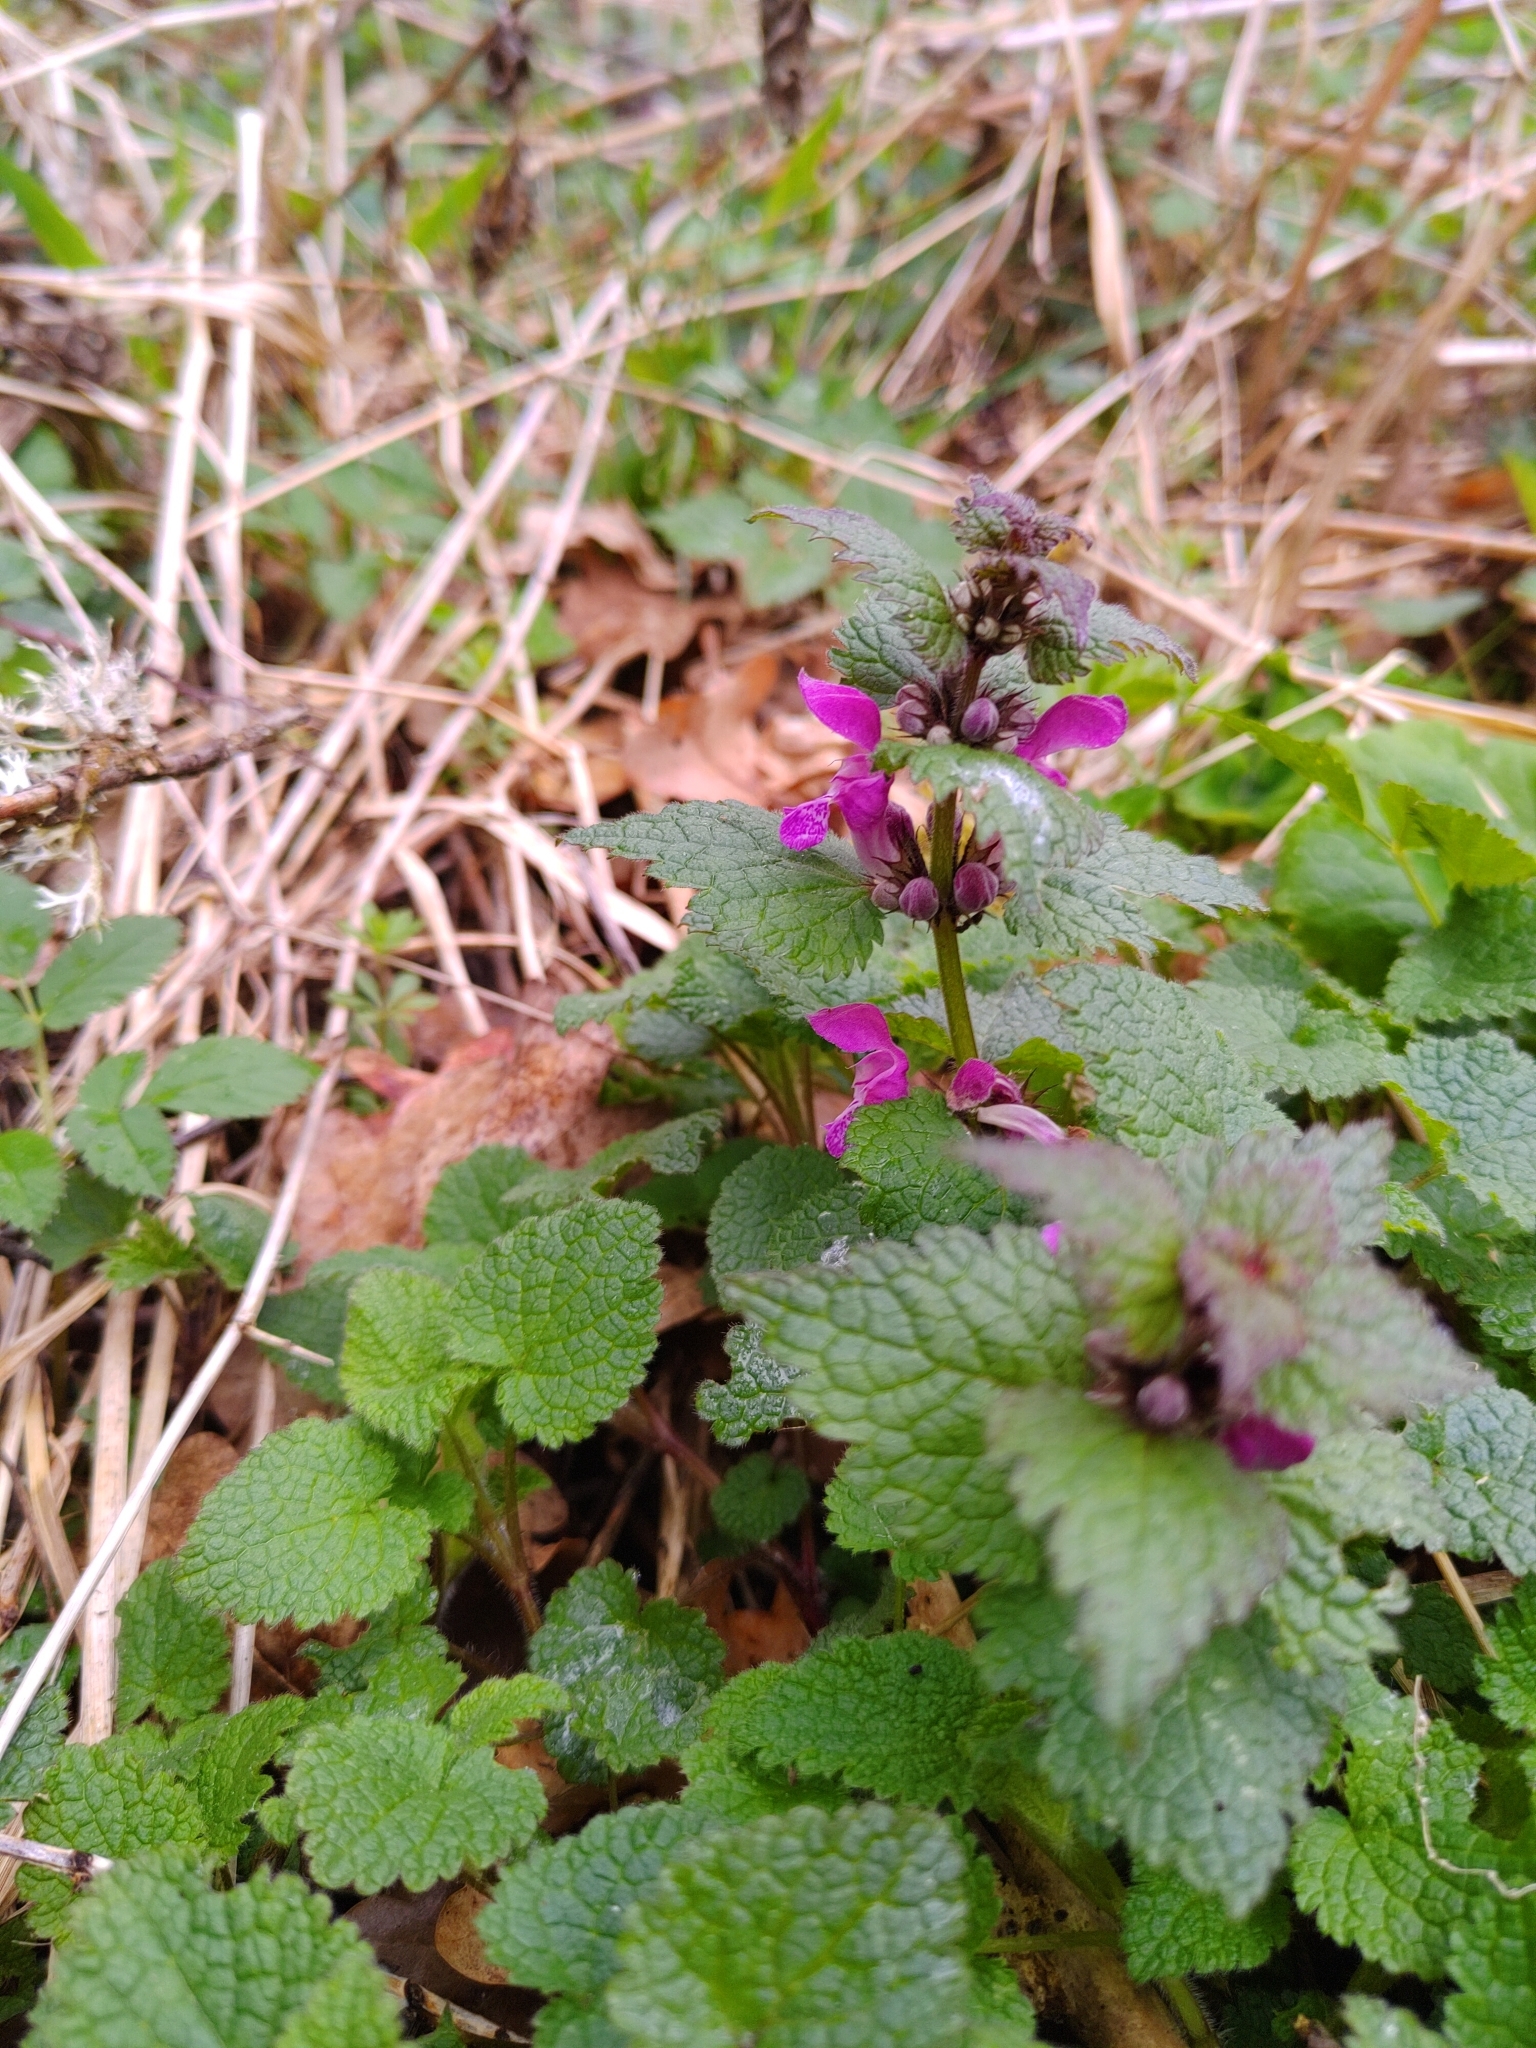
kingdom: Plantae
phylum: Tracheophyta
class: Magnoliopsida
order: Lamiales
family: Lamiaceae
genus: Lamium
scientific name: Lamium maculatum
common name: Spotted dead-nettle
